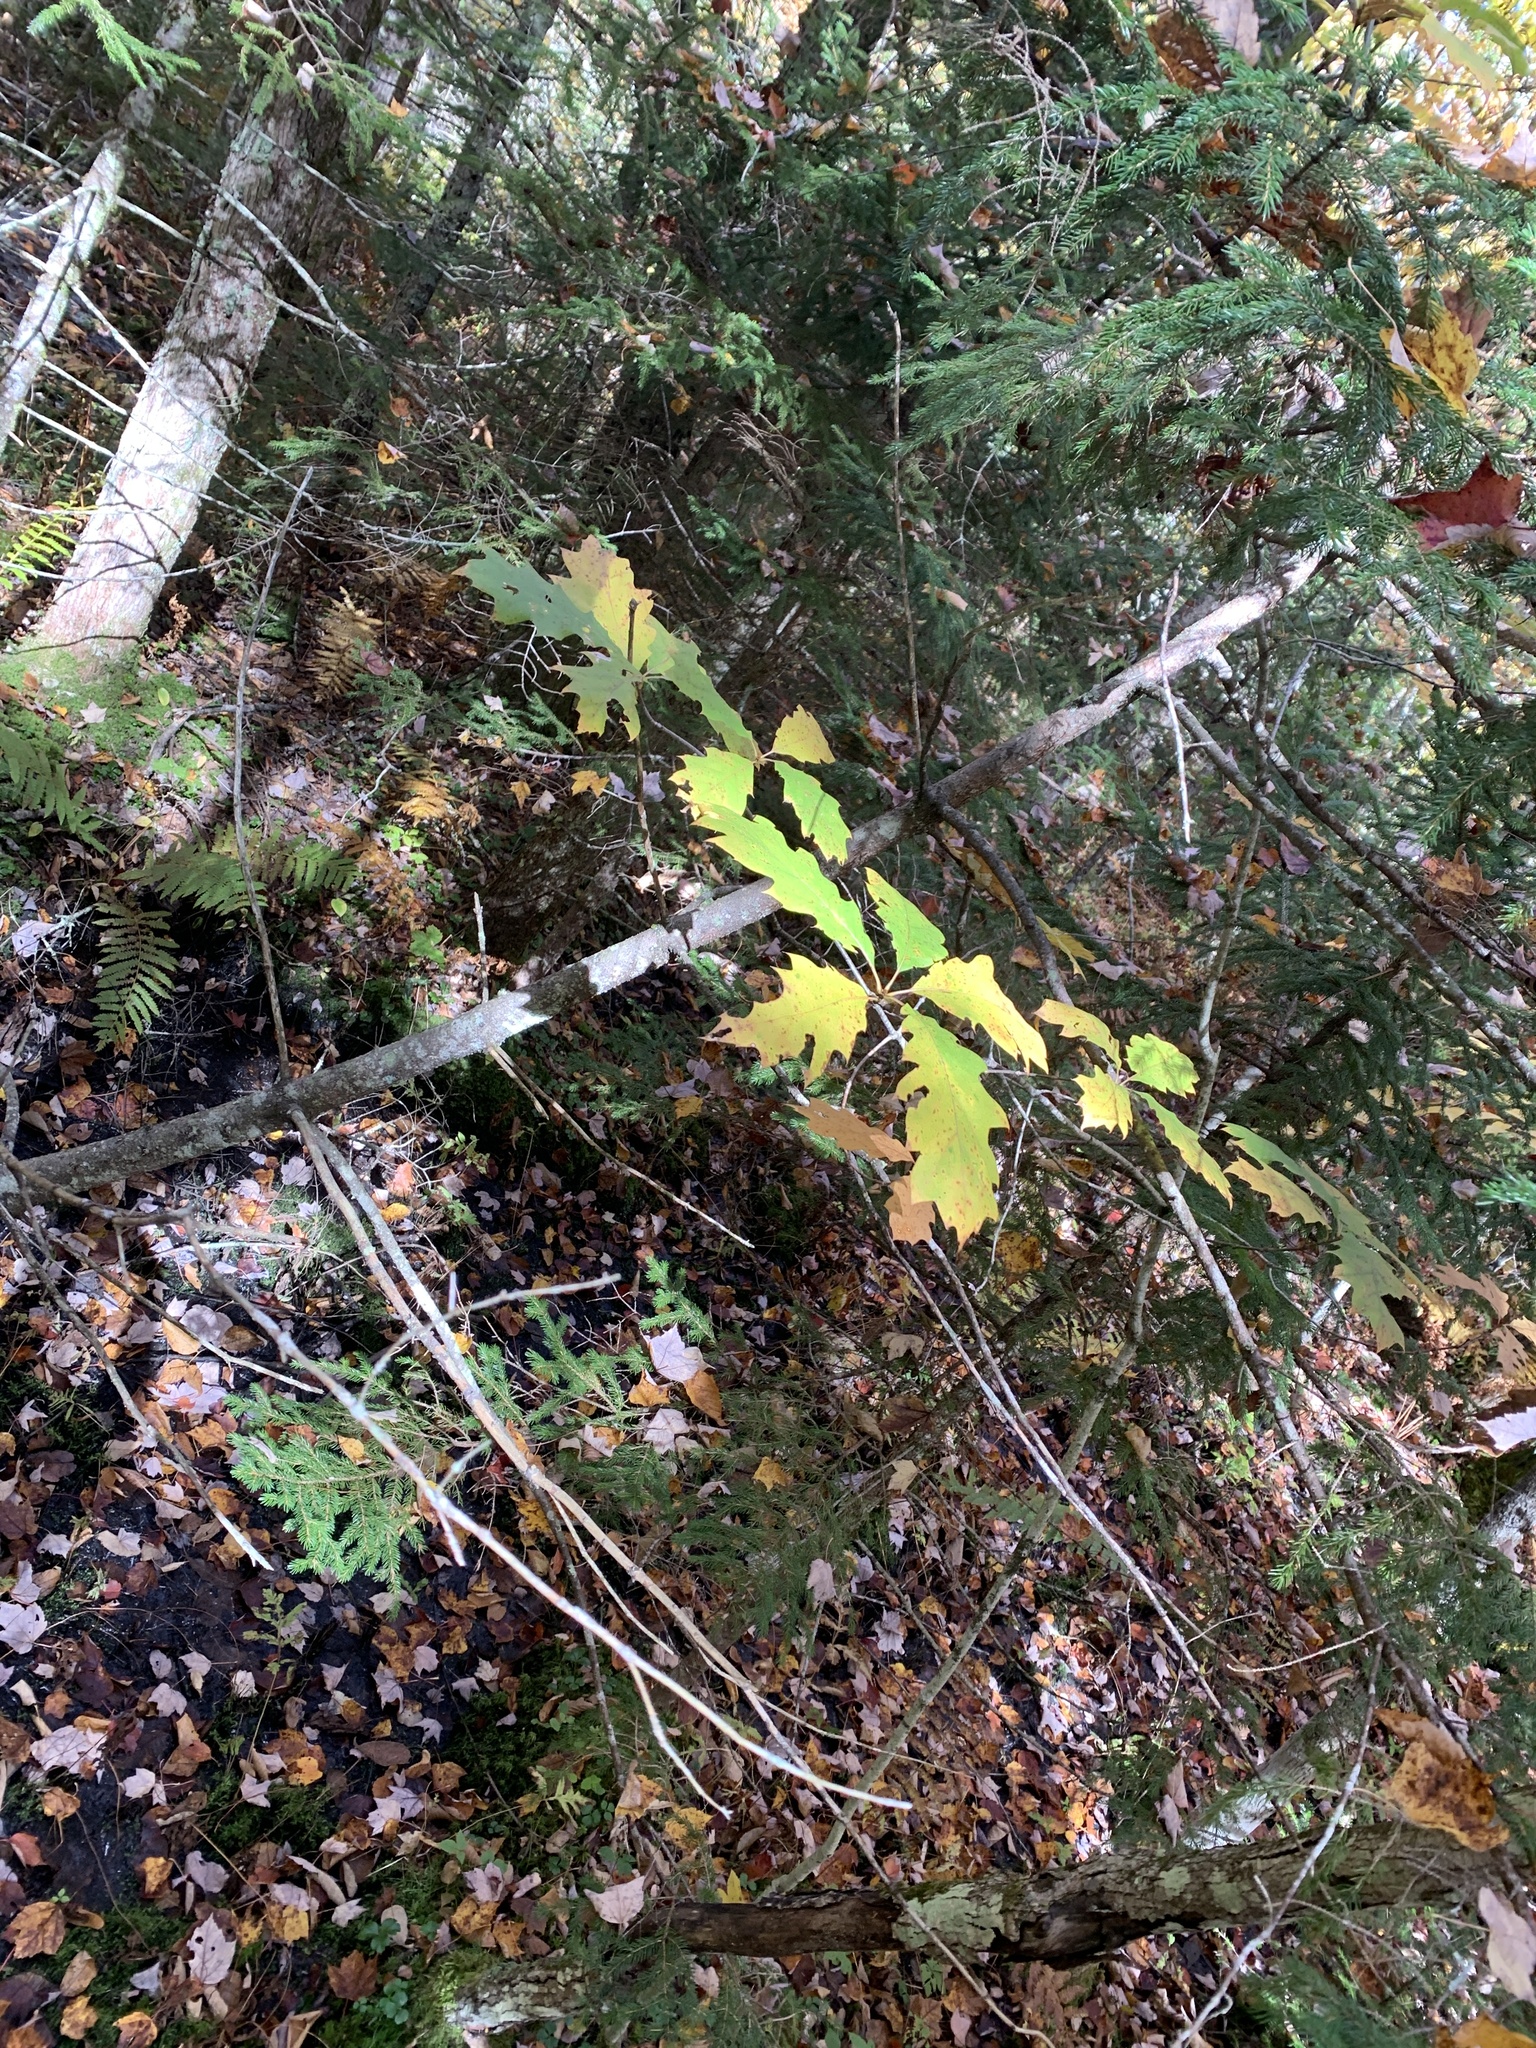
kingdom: Plantae
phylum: Tracheophyta
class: Magnoliopsida
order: Fagales
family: Fagaceae
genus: Quercus
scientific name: Quercus rubra
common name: Red oak
